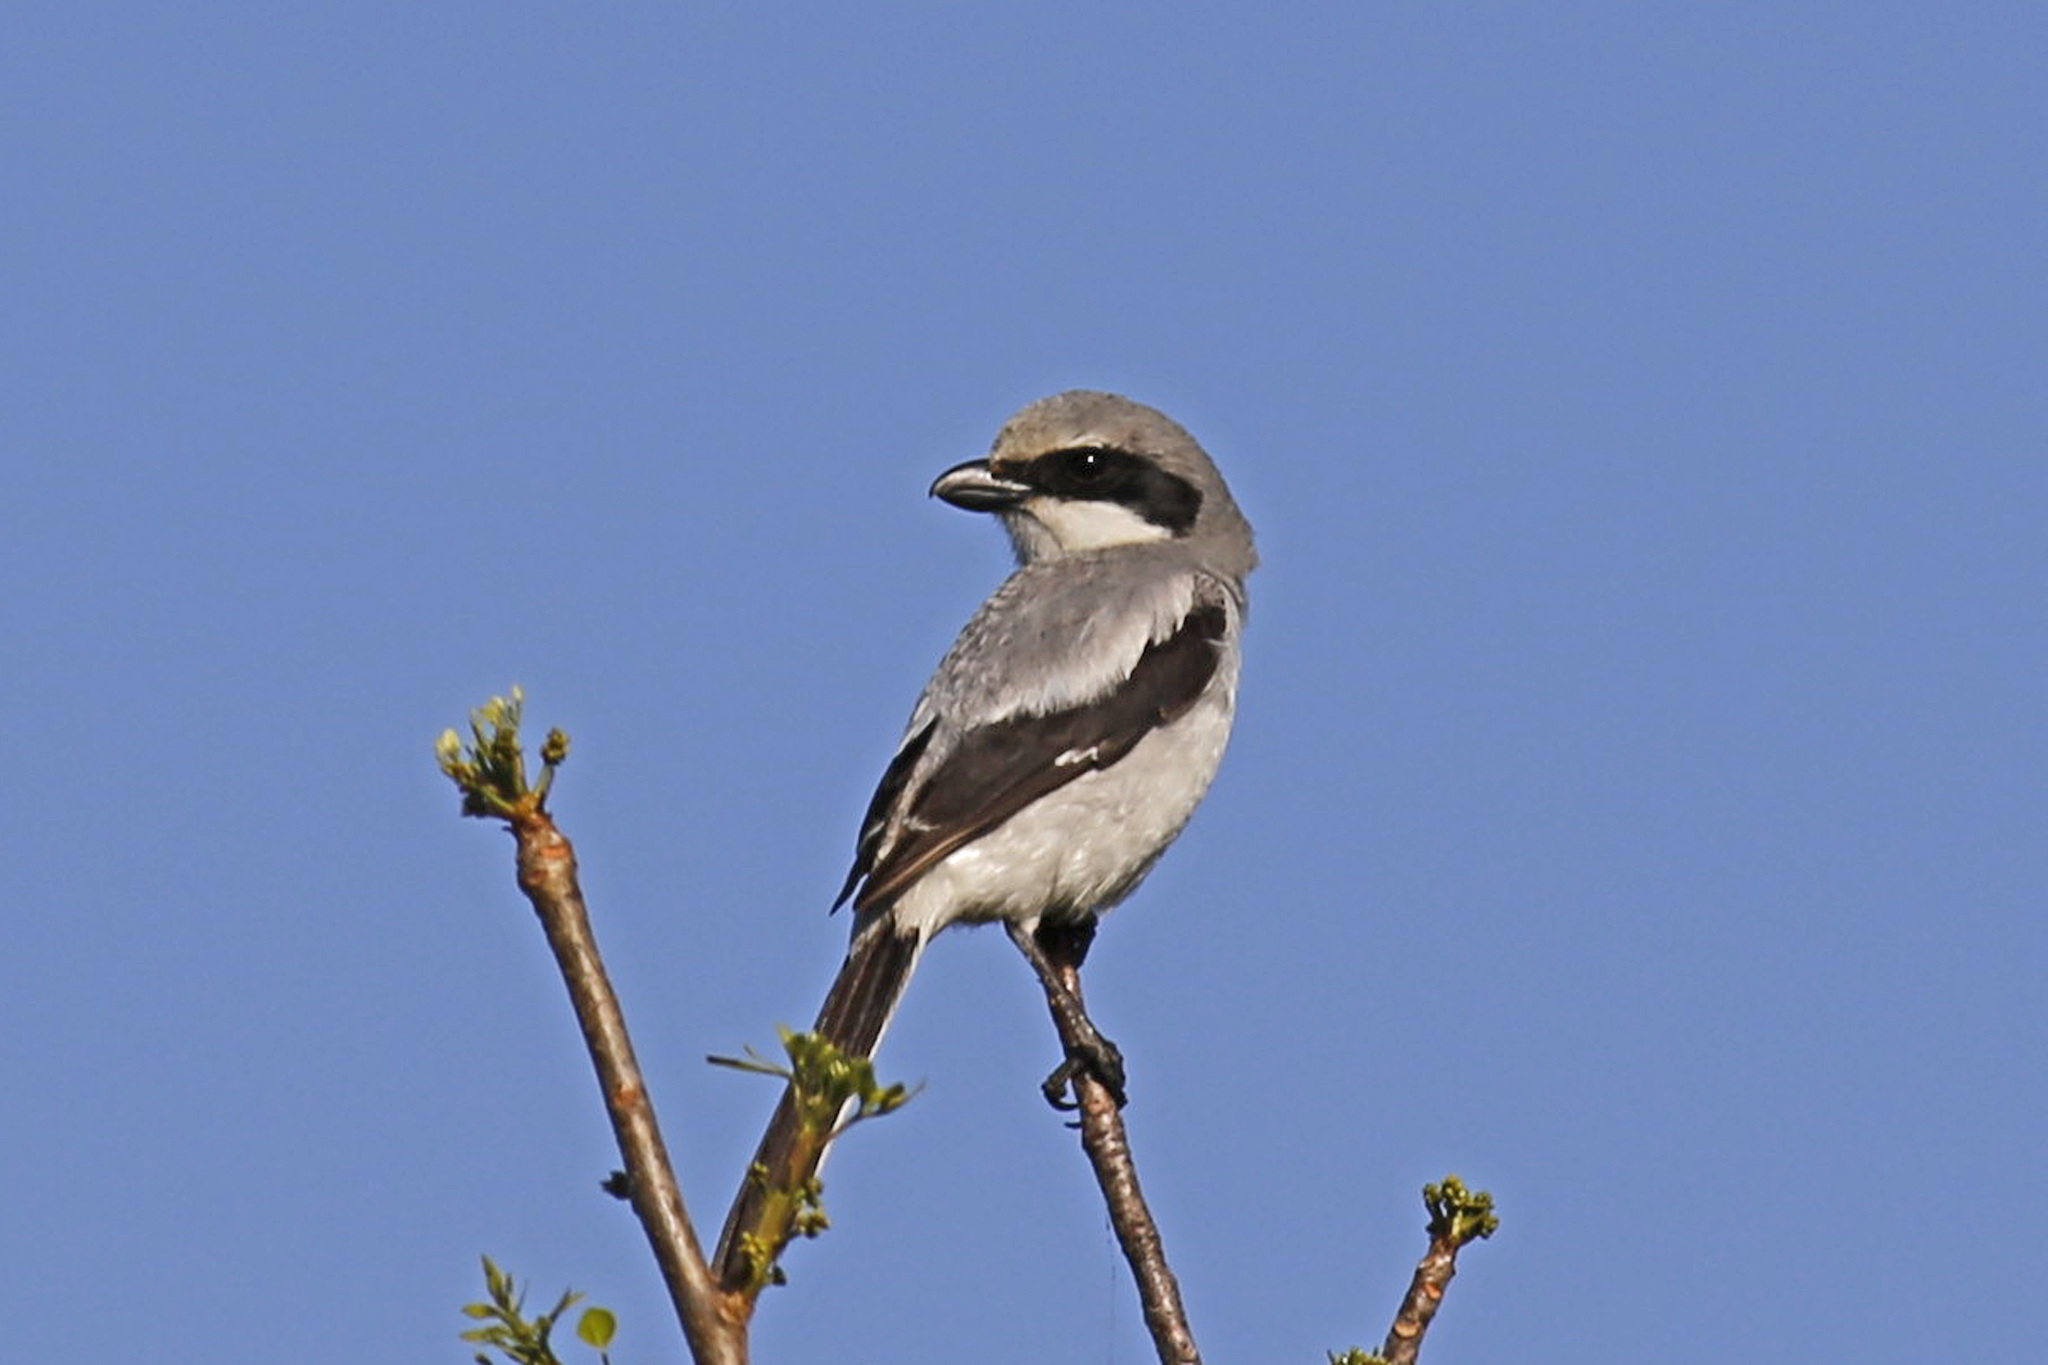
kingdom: Animalia
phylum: Chordata
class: Aves
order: Passeriformes
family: Laniidae
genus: Lanius
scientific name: Lanius ludovicianus
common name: Loggerhead shrike
